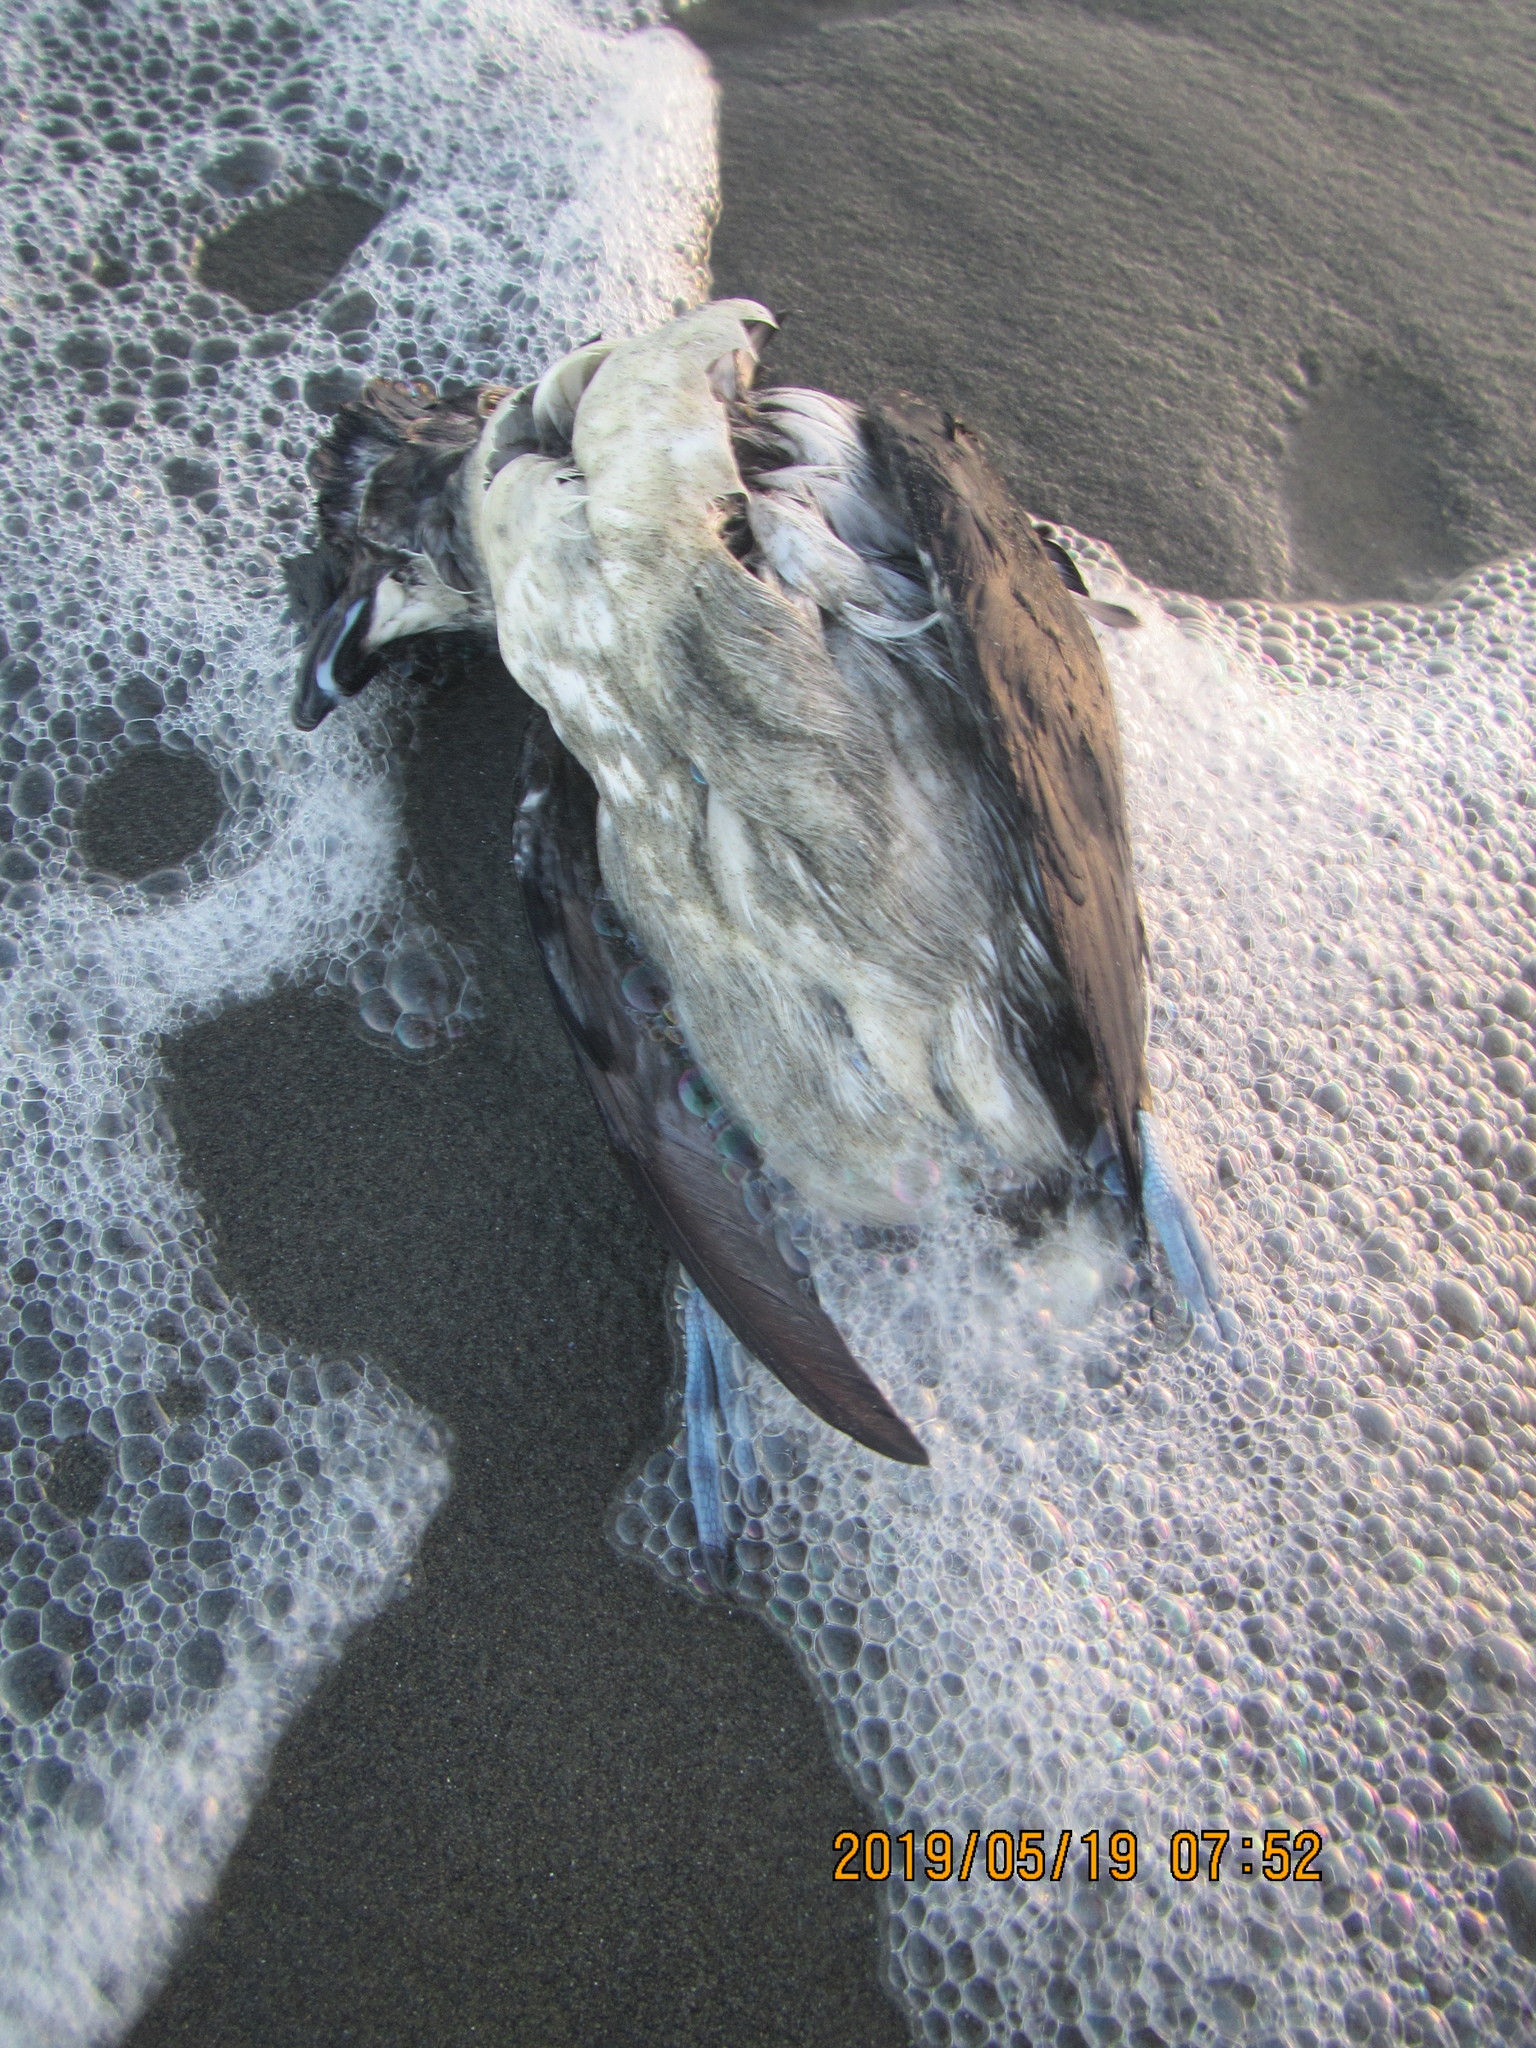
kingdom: Animalia
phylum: Chordata
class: Aves
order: Procellariiformes
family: Pelecanoididae
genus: Pelecanoides
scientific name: Pelecanoides urinatrix
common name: Common diving-petrel
